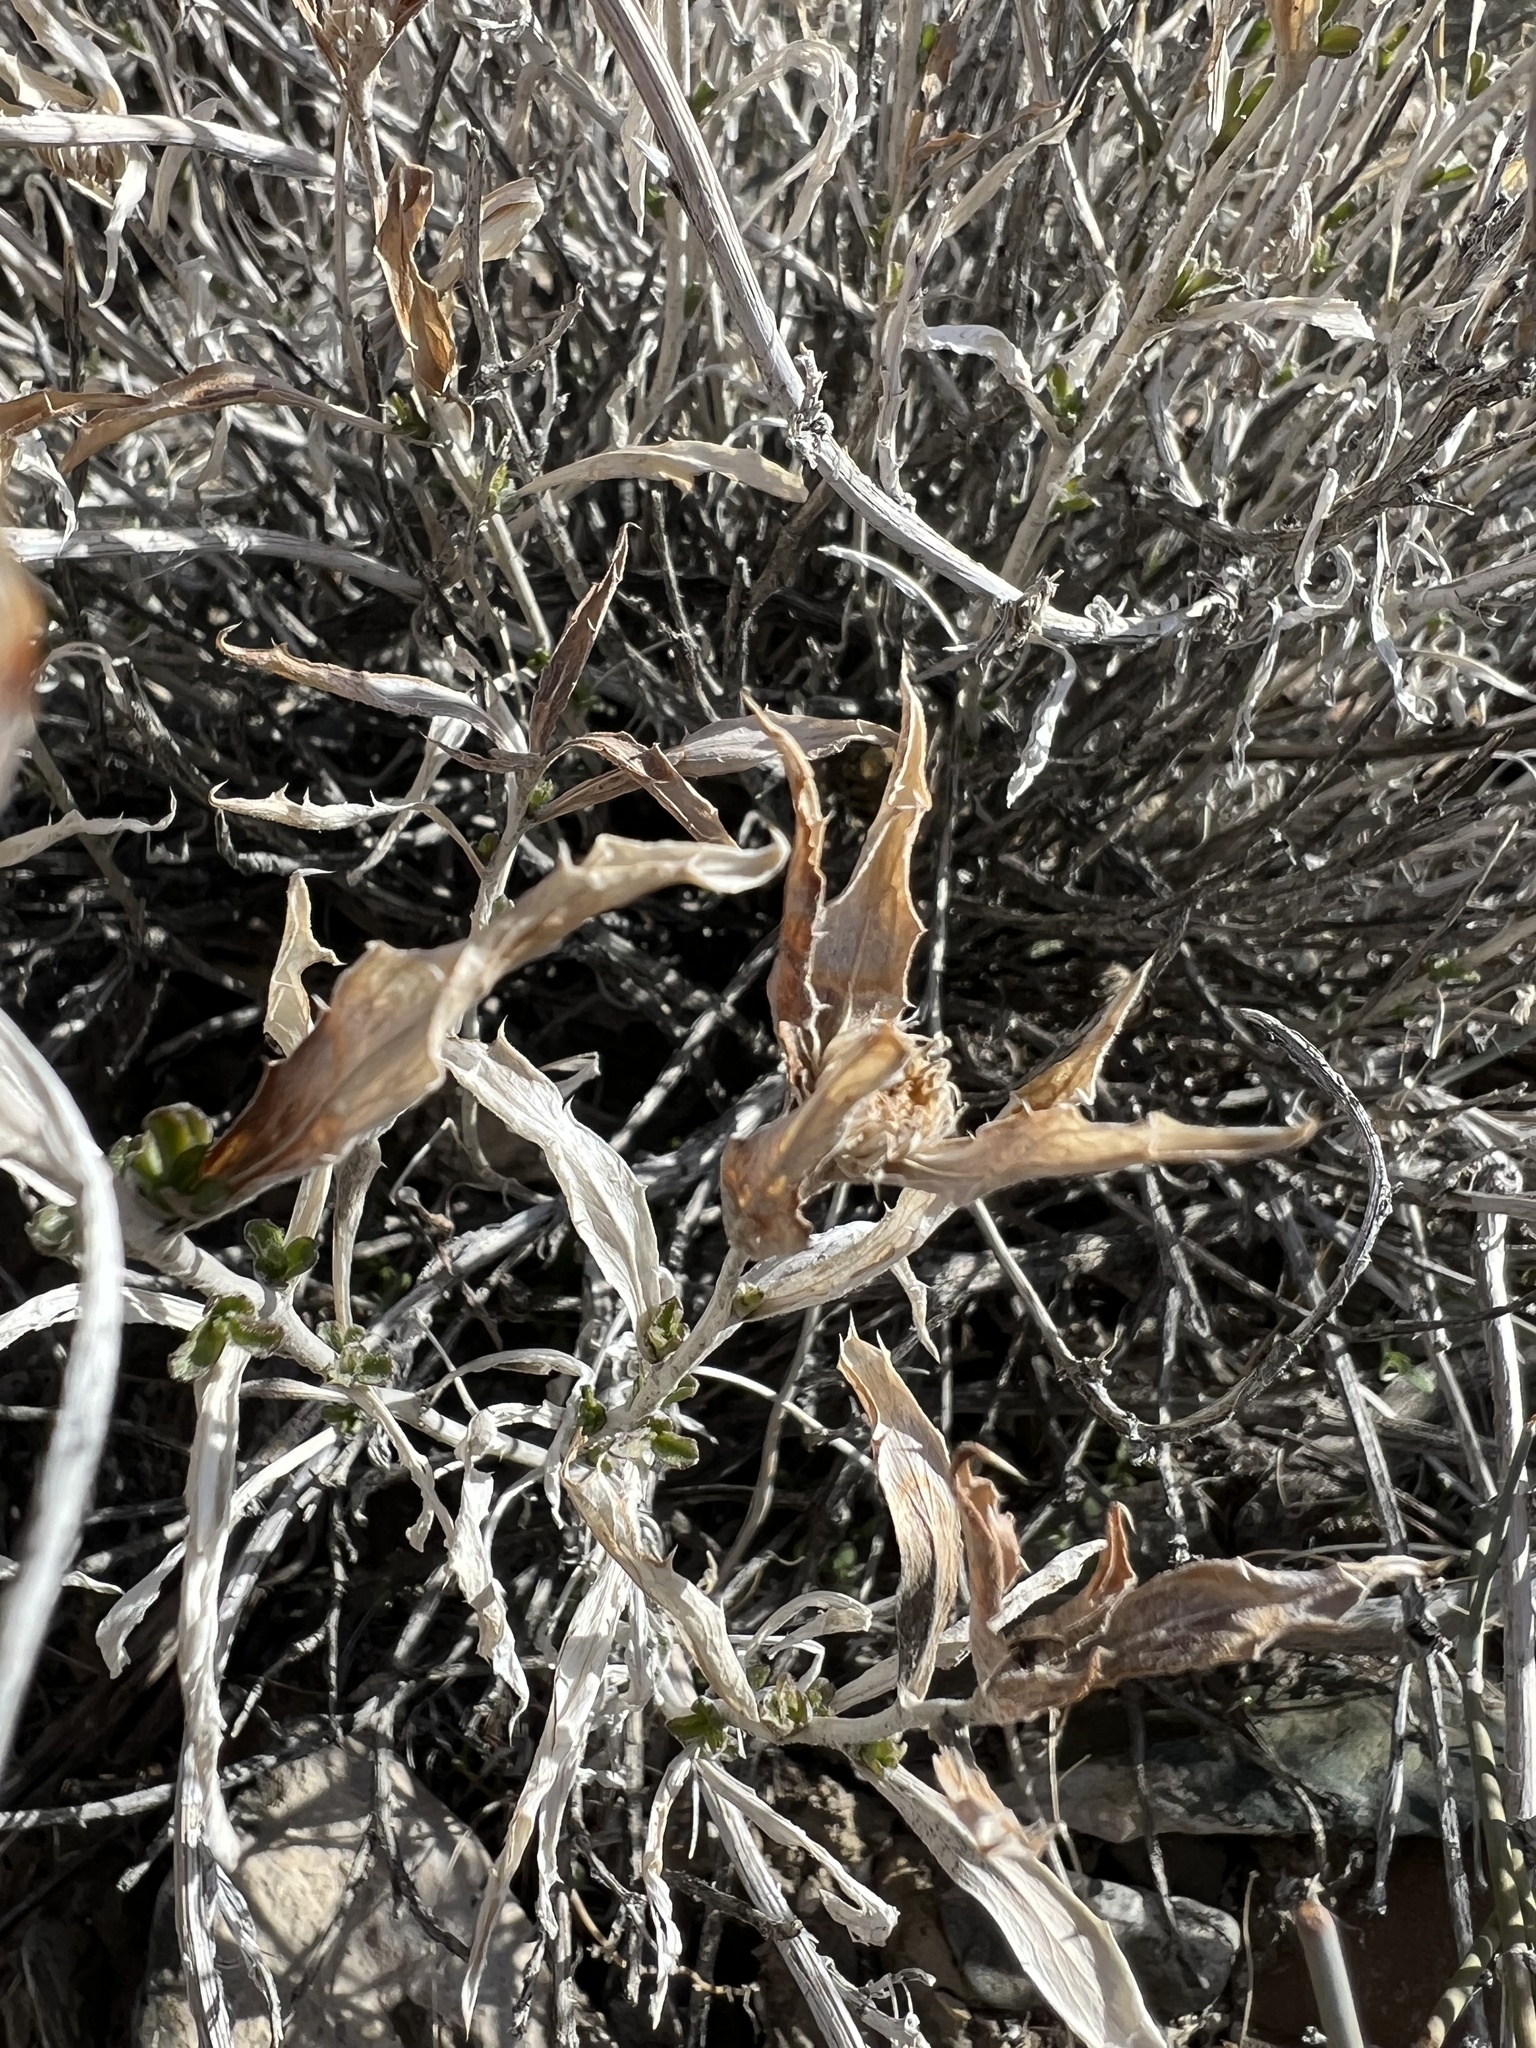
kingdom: Plantae
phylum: Tracheophyta
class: Magnoliopsida
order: Asterales
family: Asteraceae
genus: Xylorhiza
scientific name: Xylorhiza tortifolia
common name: Hurt-leaf woody-aster
